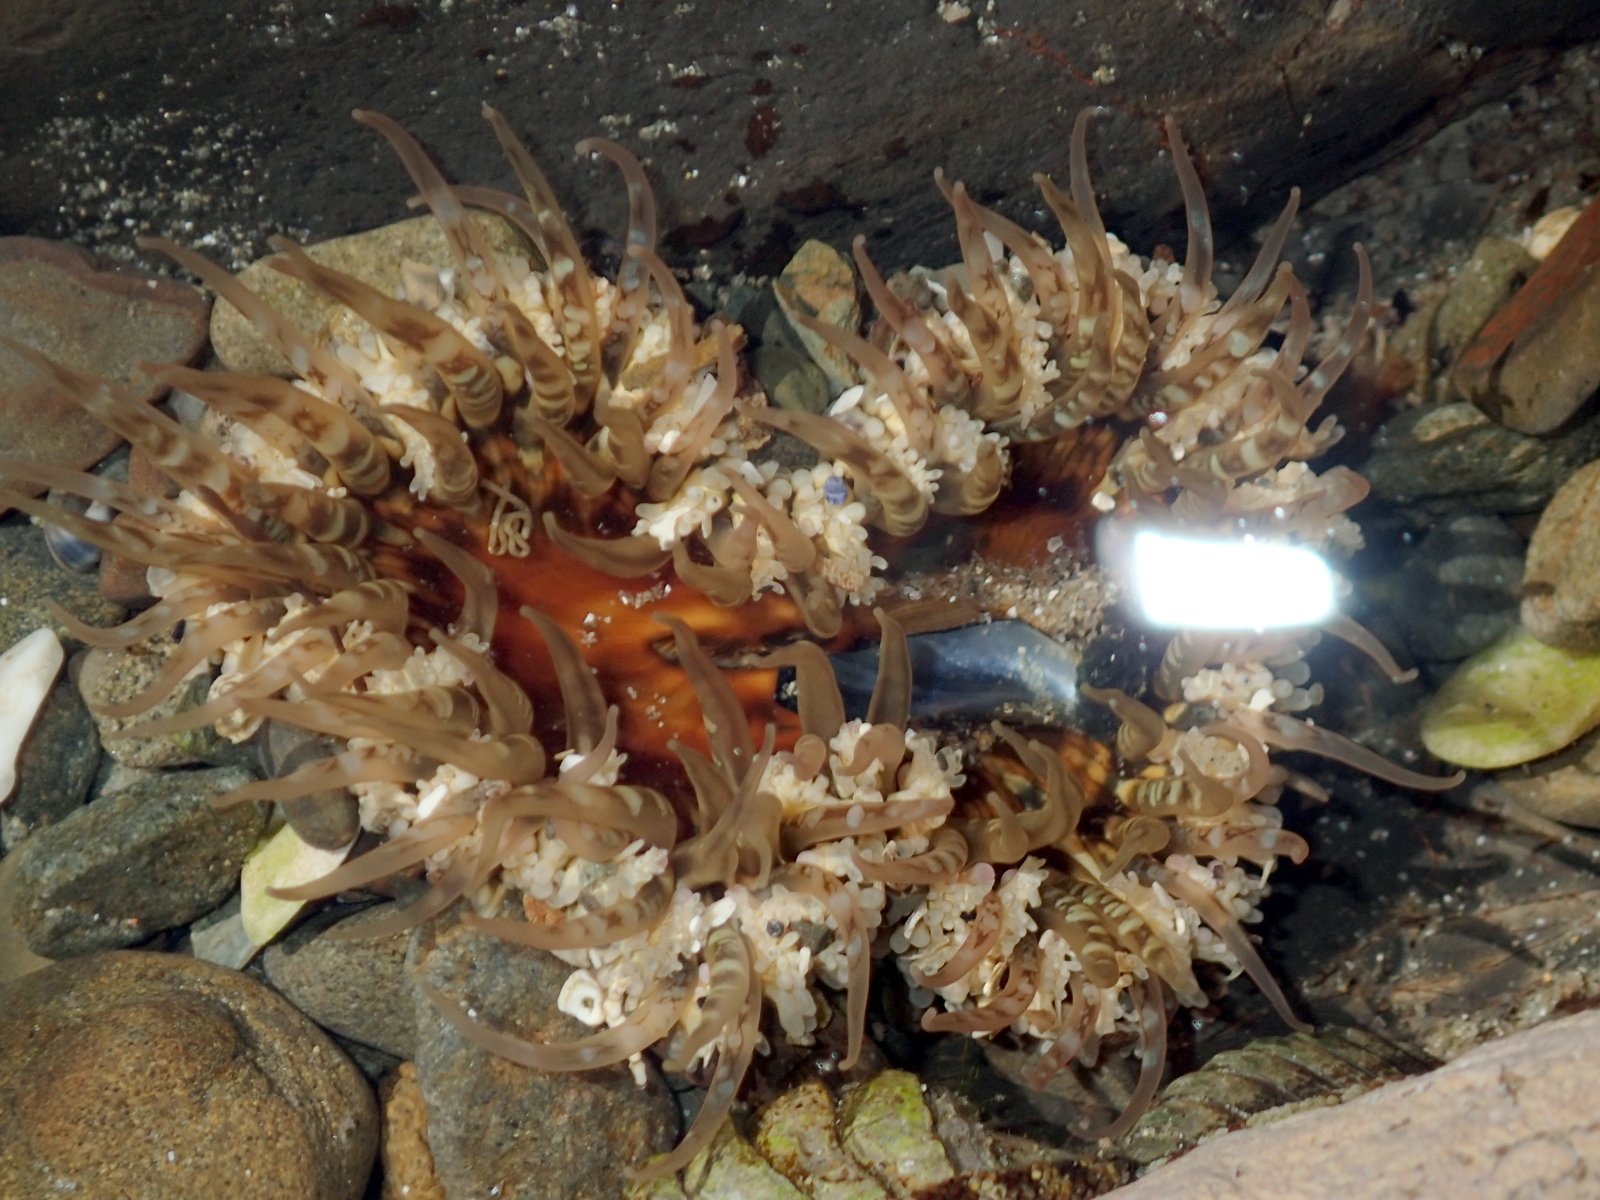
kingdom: Animalia
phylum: Cnidaria
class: Anthozoa
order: Actiniaria
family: Actiniidae
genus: Oulactis
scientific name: Oulactis muscosa
